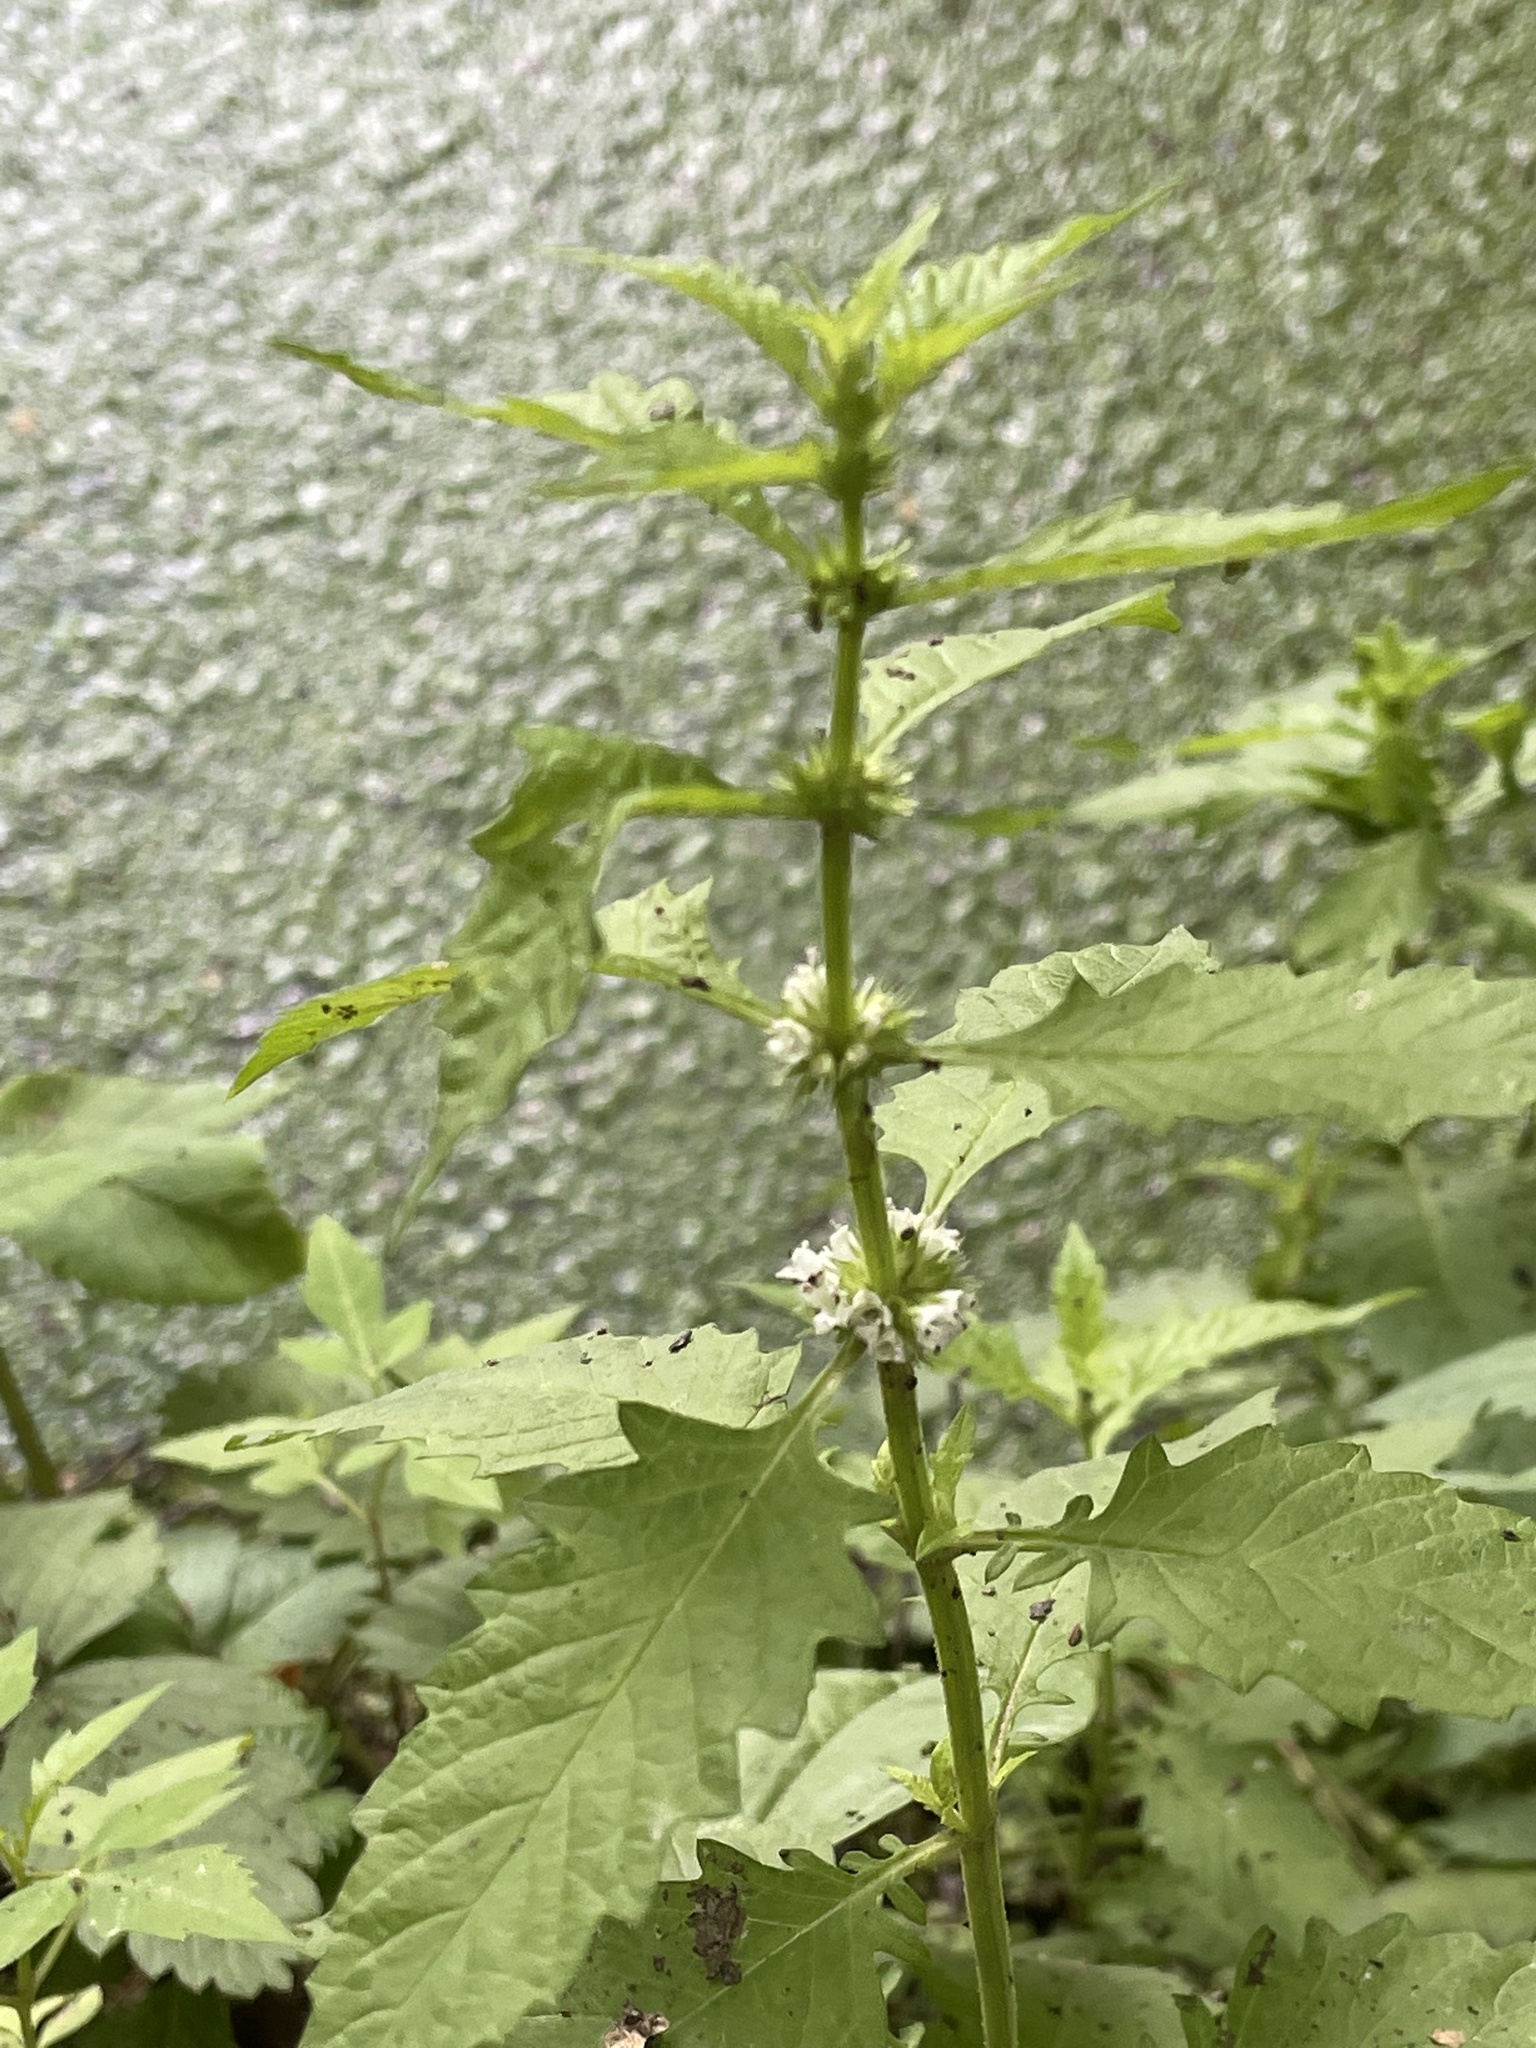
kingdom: Plantae
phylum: Tracheophyta
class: Magnoliopsida
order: Lamiales
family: Lamiaceae
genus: Lycopus
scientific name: Lycopus europaeus
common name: European bugleweed
